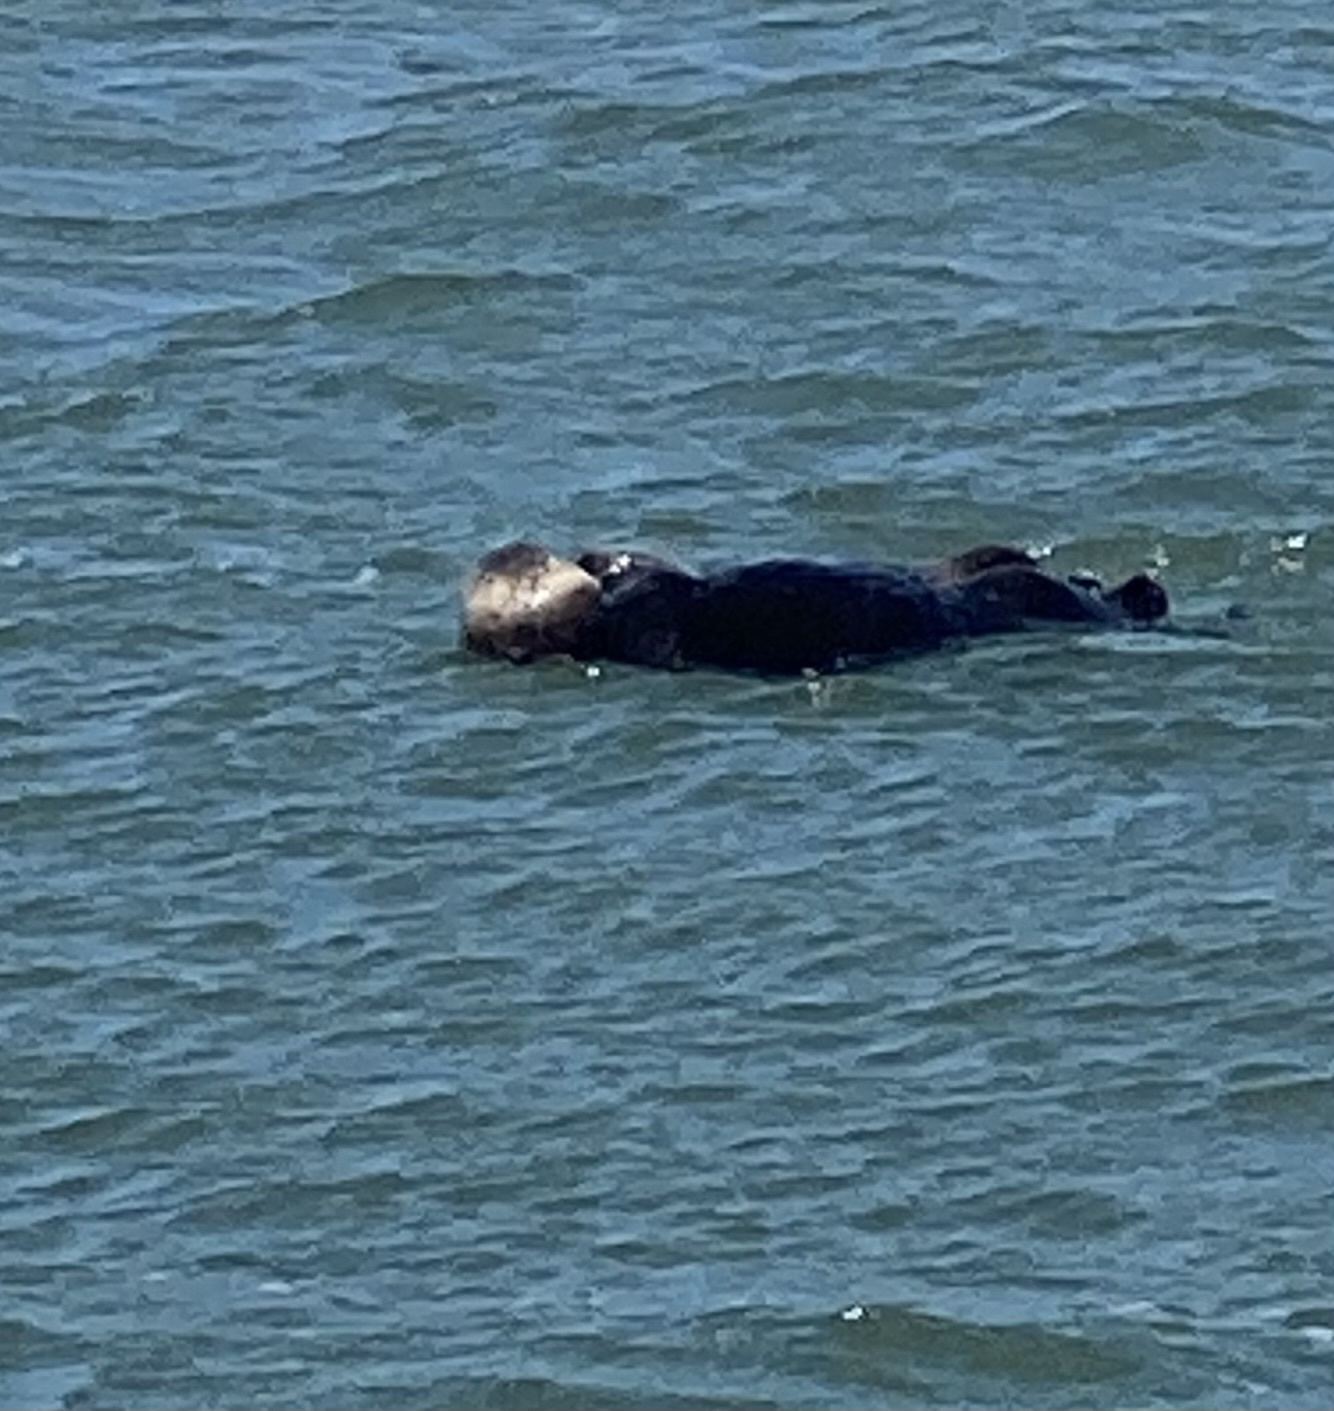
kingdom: Animalia
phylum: Chordata
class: Mammalia
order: Carnivora
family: Mustelidae
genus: Enhydra
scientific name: Enhydra lutris
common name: Sea otter
